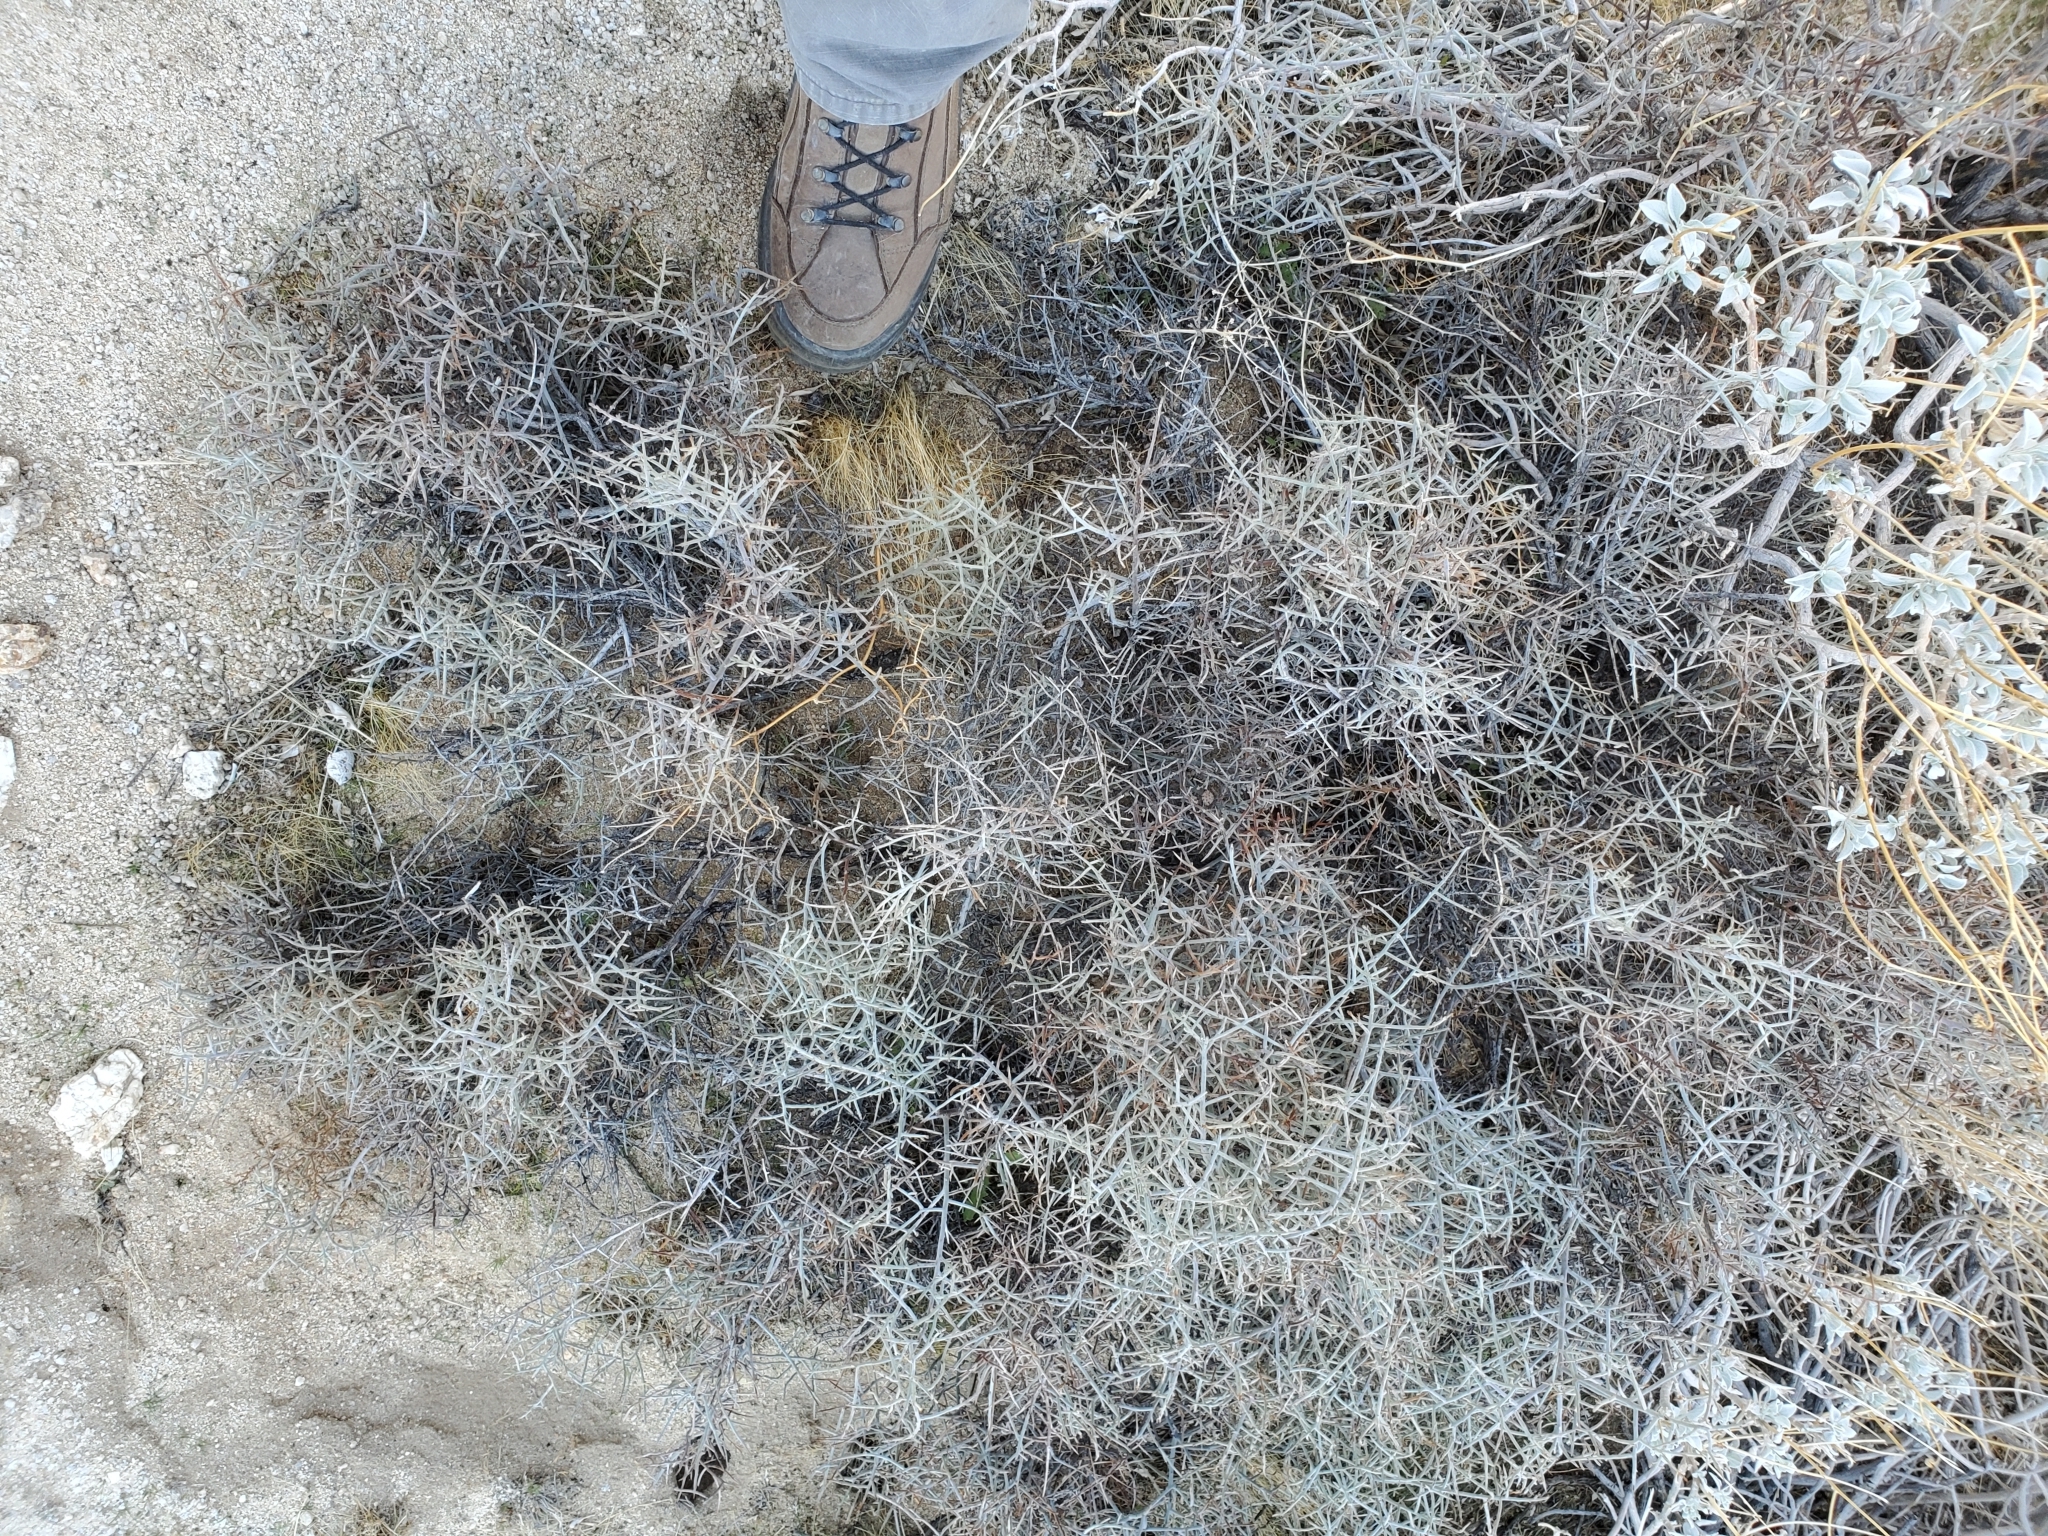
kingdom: Plantae
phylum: Tracheophyta
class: Magnoliopsida
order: Zygophyllales
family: Krameriaceae
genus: Krameria
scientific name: Krameria bicolor
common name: White ratany
